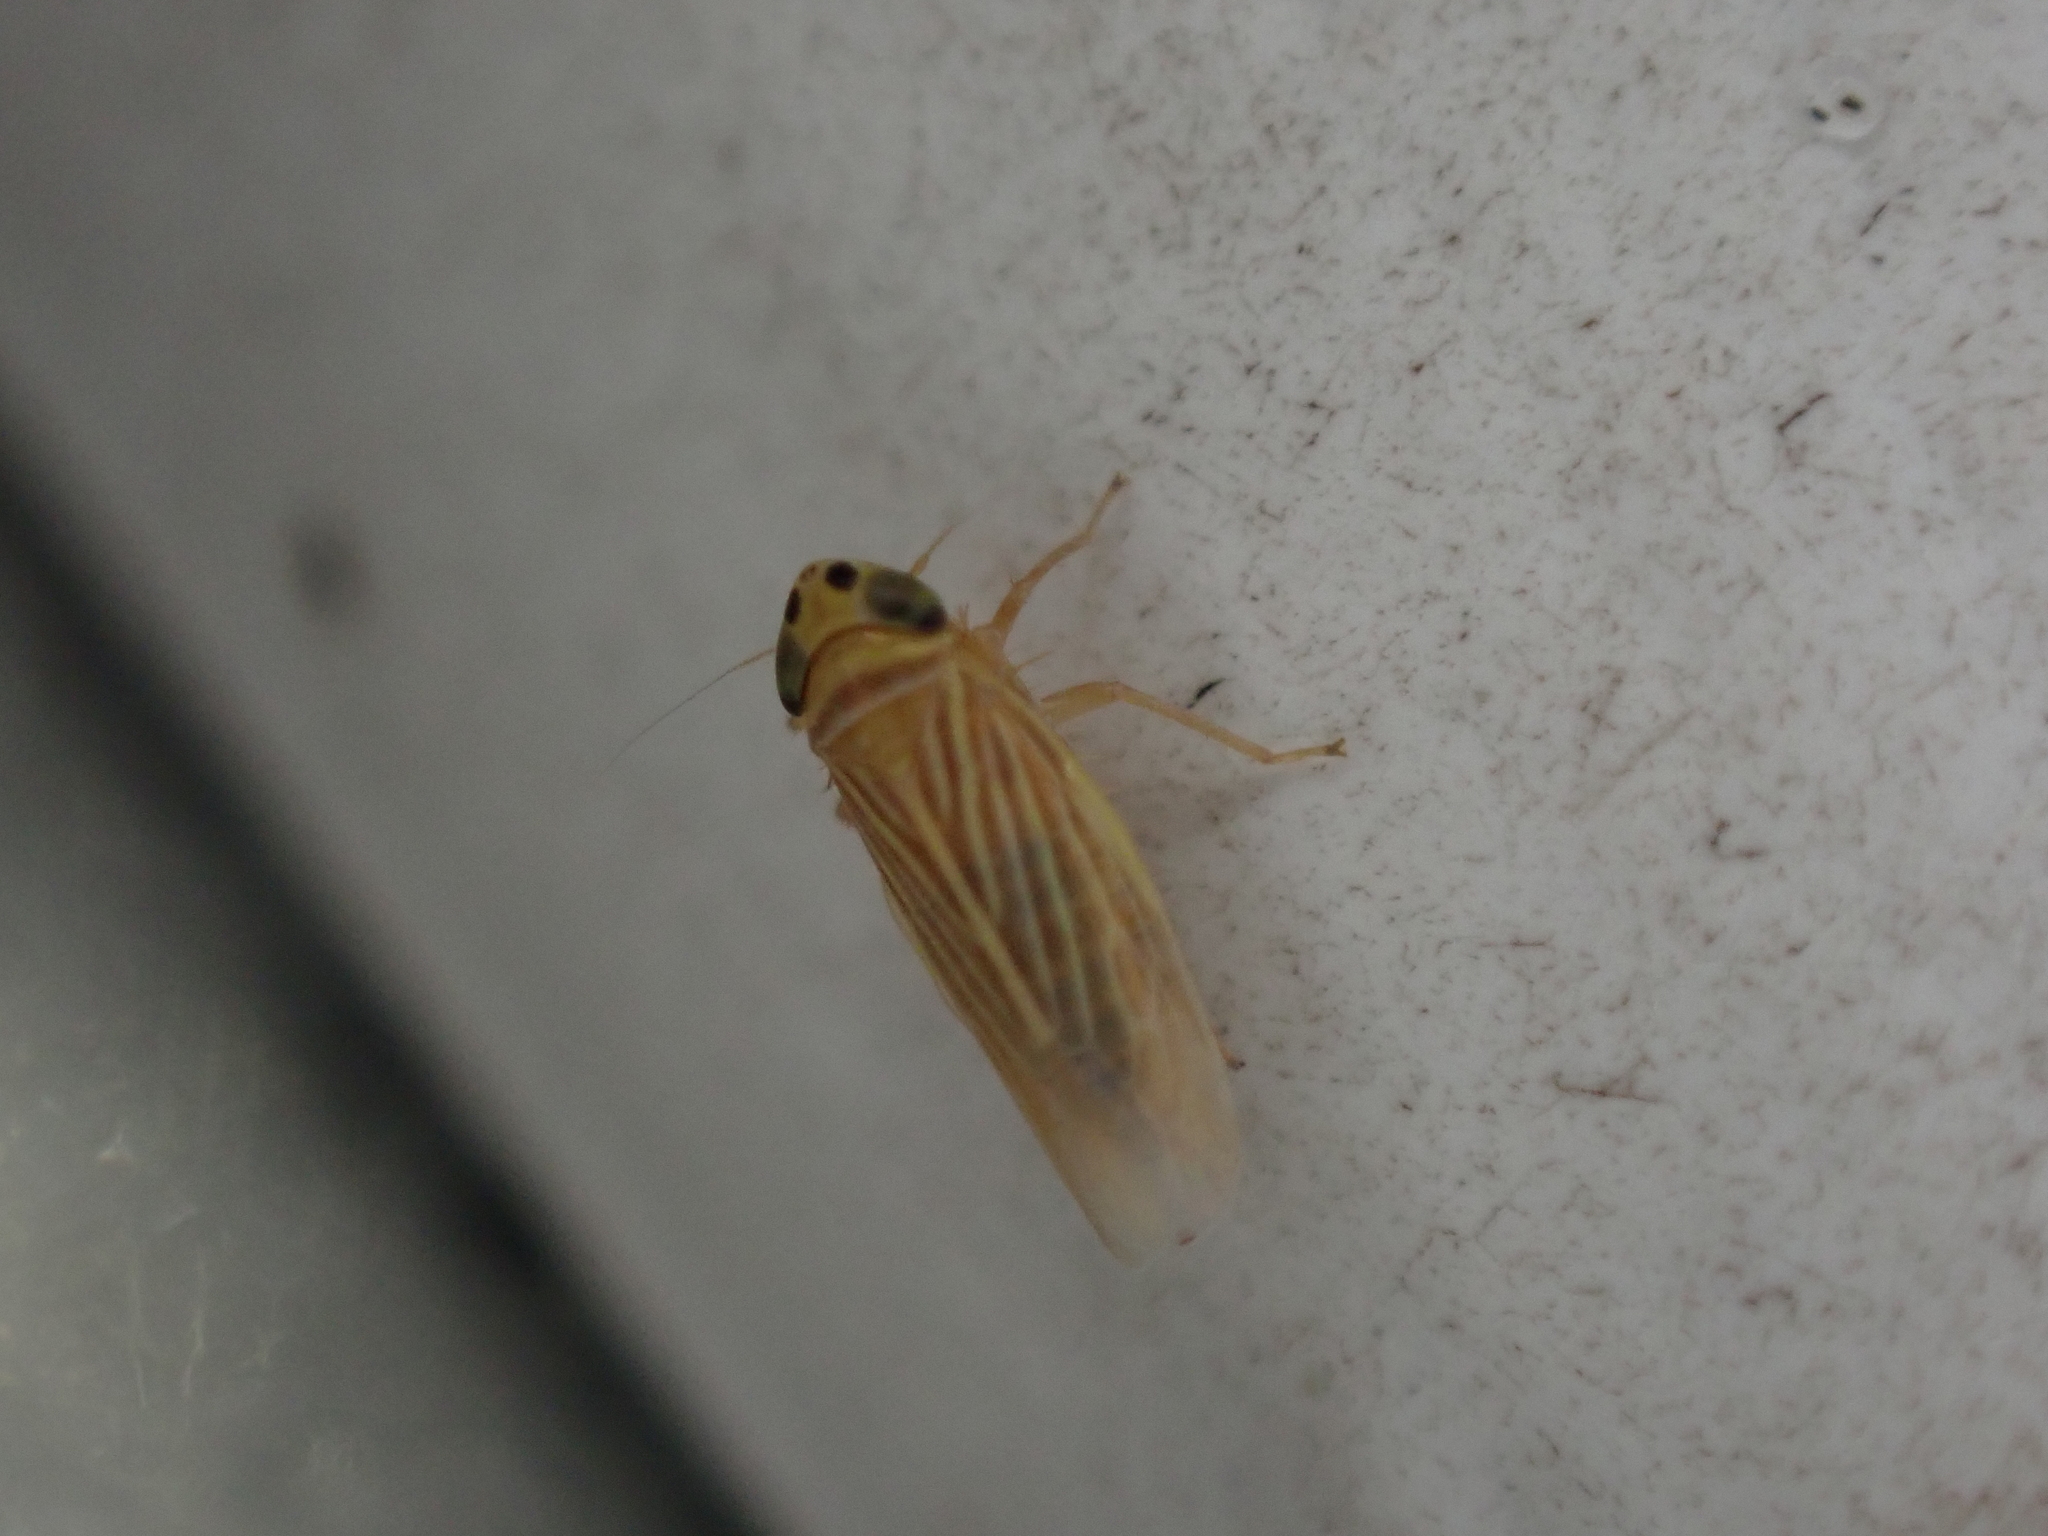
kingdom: Animalia
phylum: Arthropoda
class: Insecta
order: Hemiptera
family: Cicadellidae
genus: Graminella
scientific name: Graminella villicus
